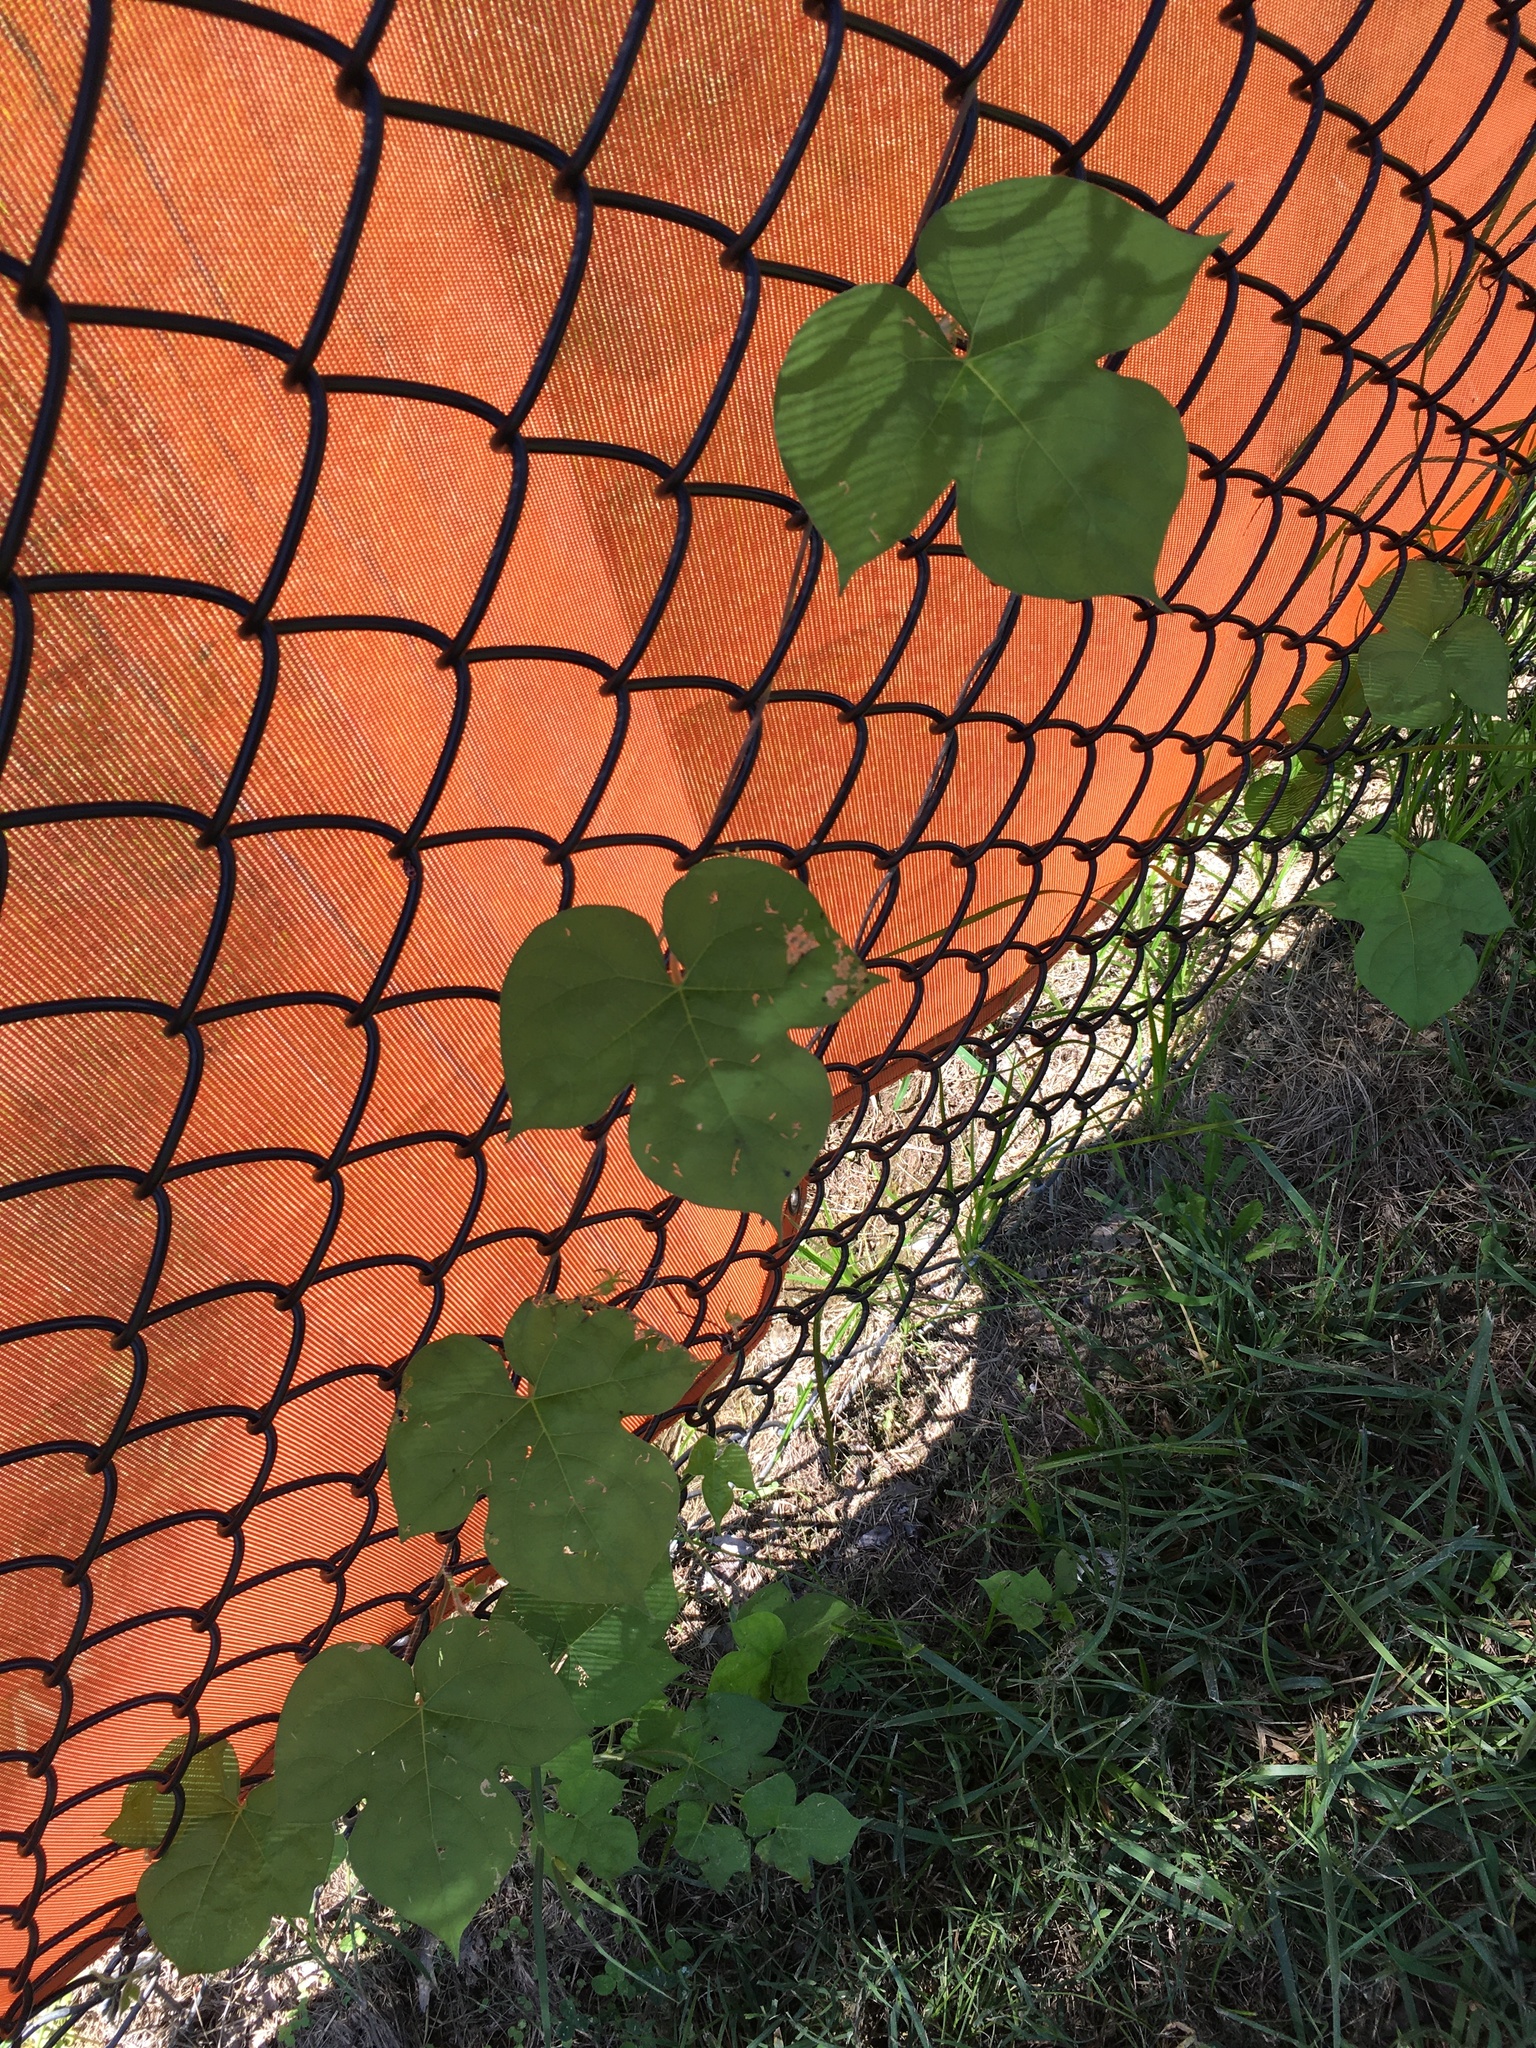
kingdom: Plantae
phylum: Tracheophyta
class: Magnoliopsida
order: Solanales
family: Convolvulaceae
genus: Ipomoea
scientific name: Ipomoea hederacea
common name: Ivy-leaved morning-glory
